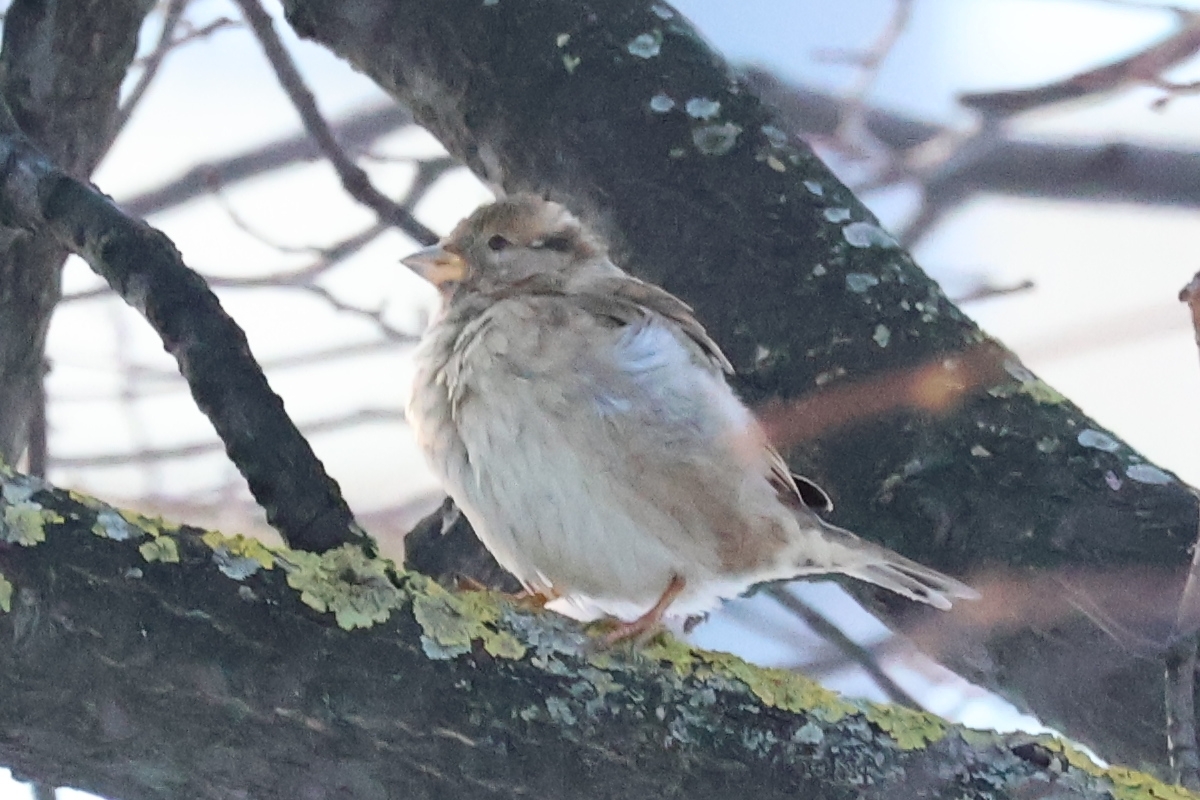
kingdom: Animalia
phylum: Chordata
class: Aves
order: Passeriformes
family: Passeridae
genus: Passer
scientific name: Passer domesticus
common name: House sparrow
